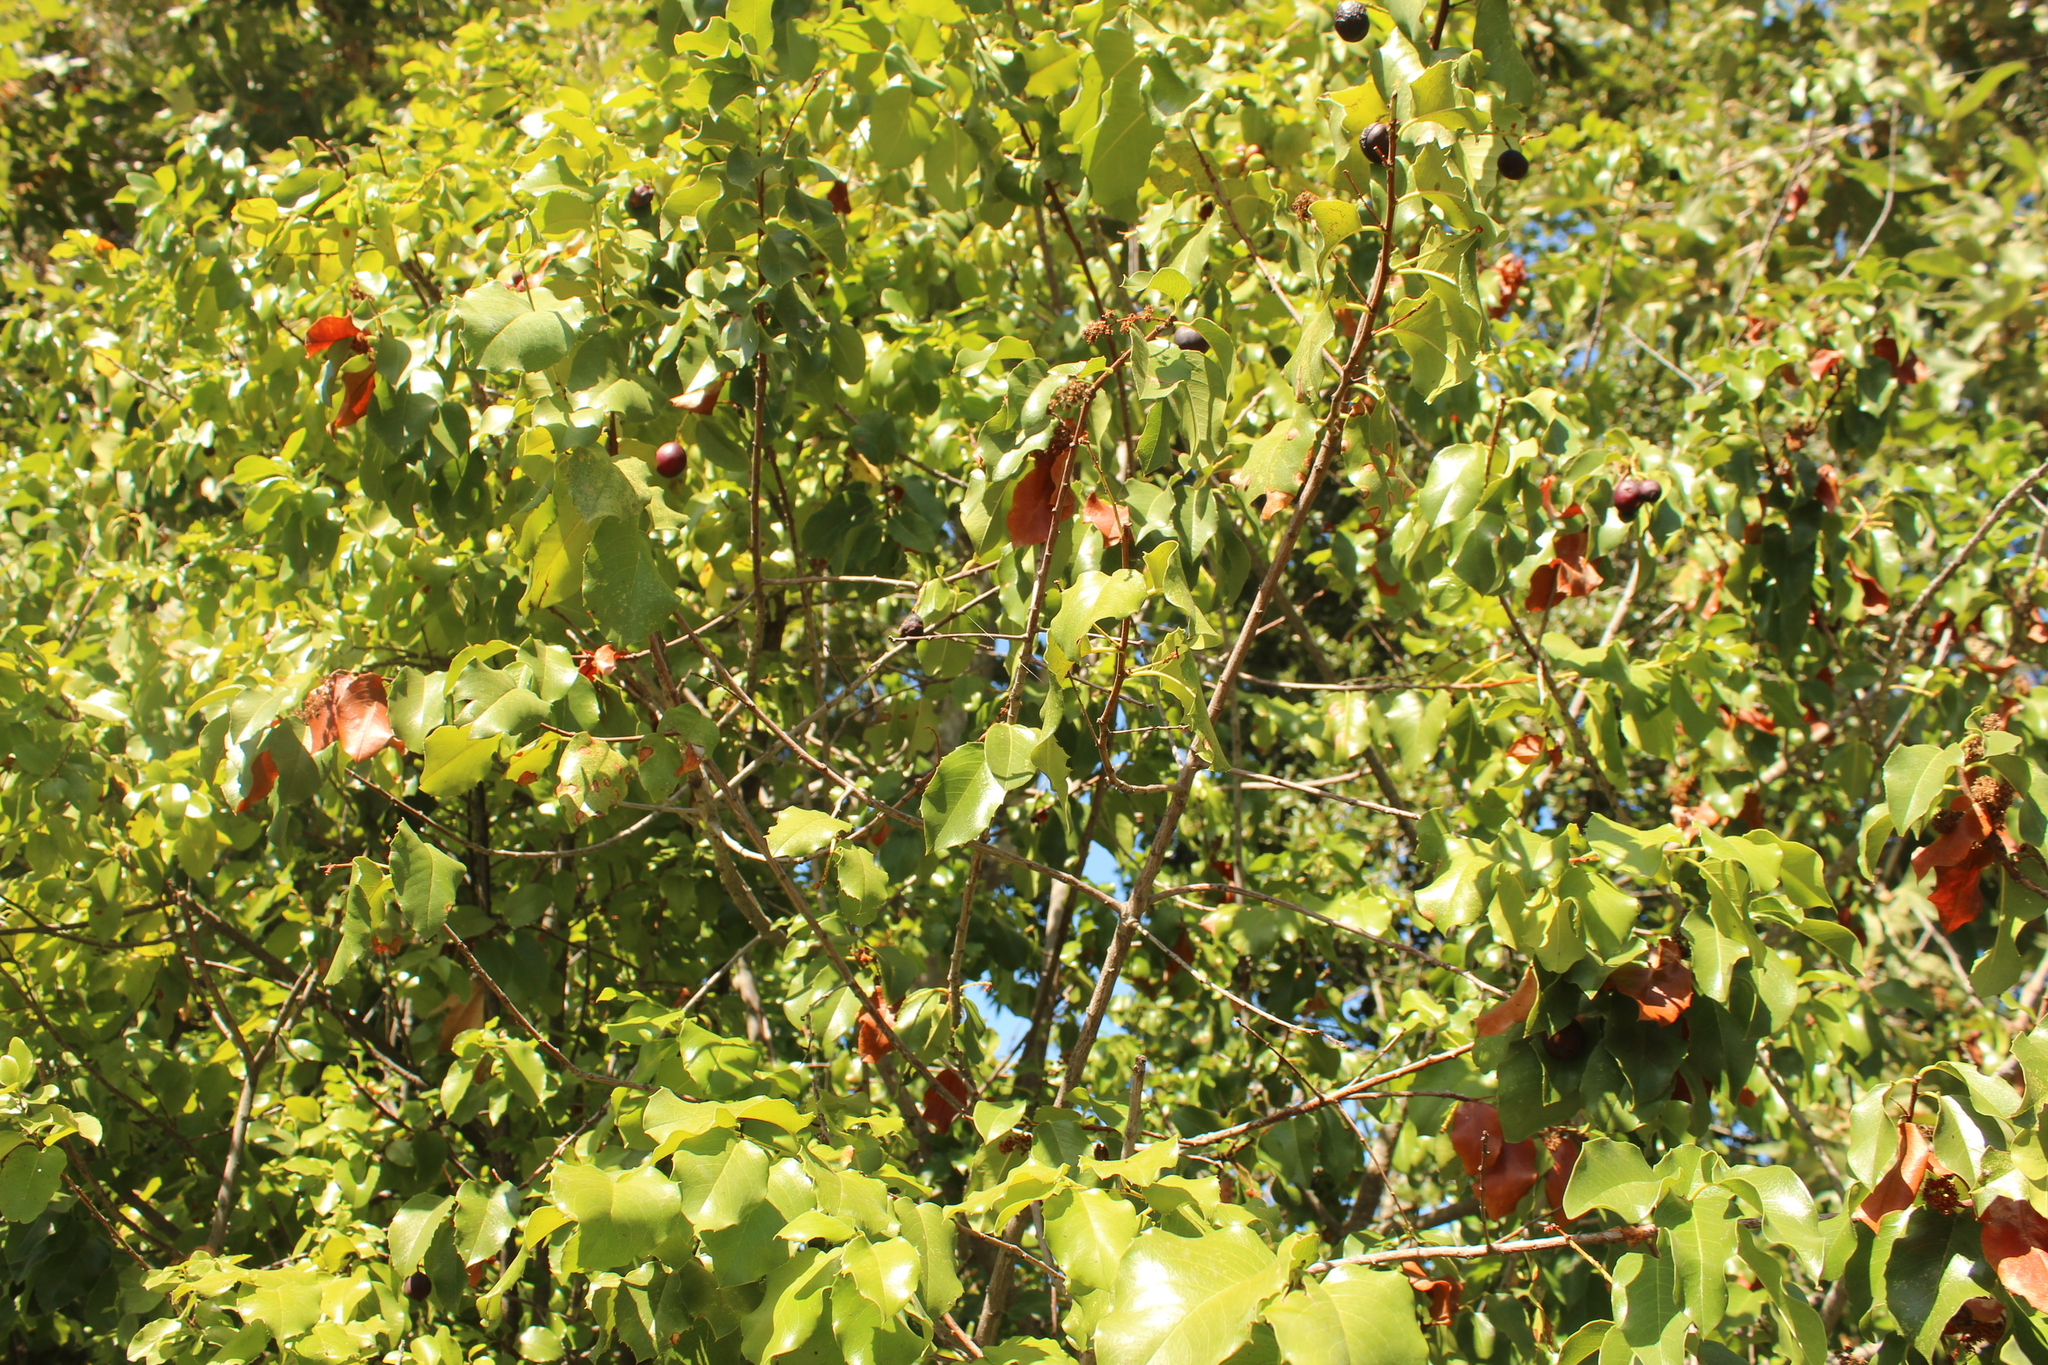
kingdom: Plantae
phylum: Tracheophyta
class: Magnoliopsida
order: Rosales
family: Rosaceae
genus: Prunus
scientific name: Prunus ilicifolia
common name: Hollyleaf cherry
